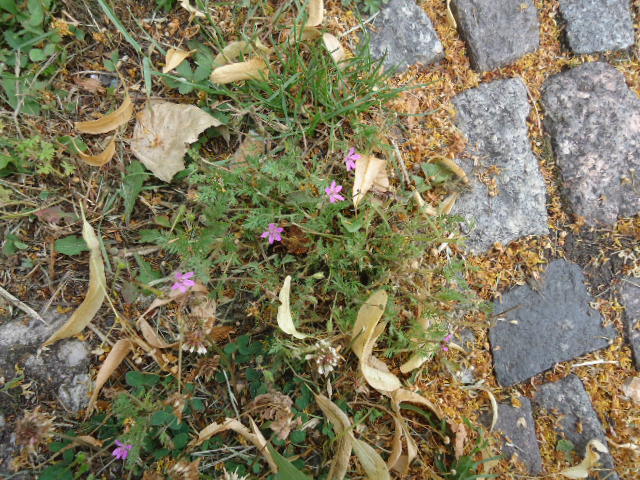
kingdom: Plantae
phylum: Tracheophyta
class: Magnoliopsida
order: Geraniales
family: Geraniaceae
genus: Erodium
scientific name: Erodium cicutarium
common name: Common stork's-bill
